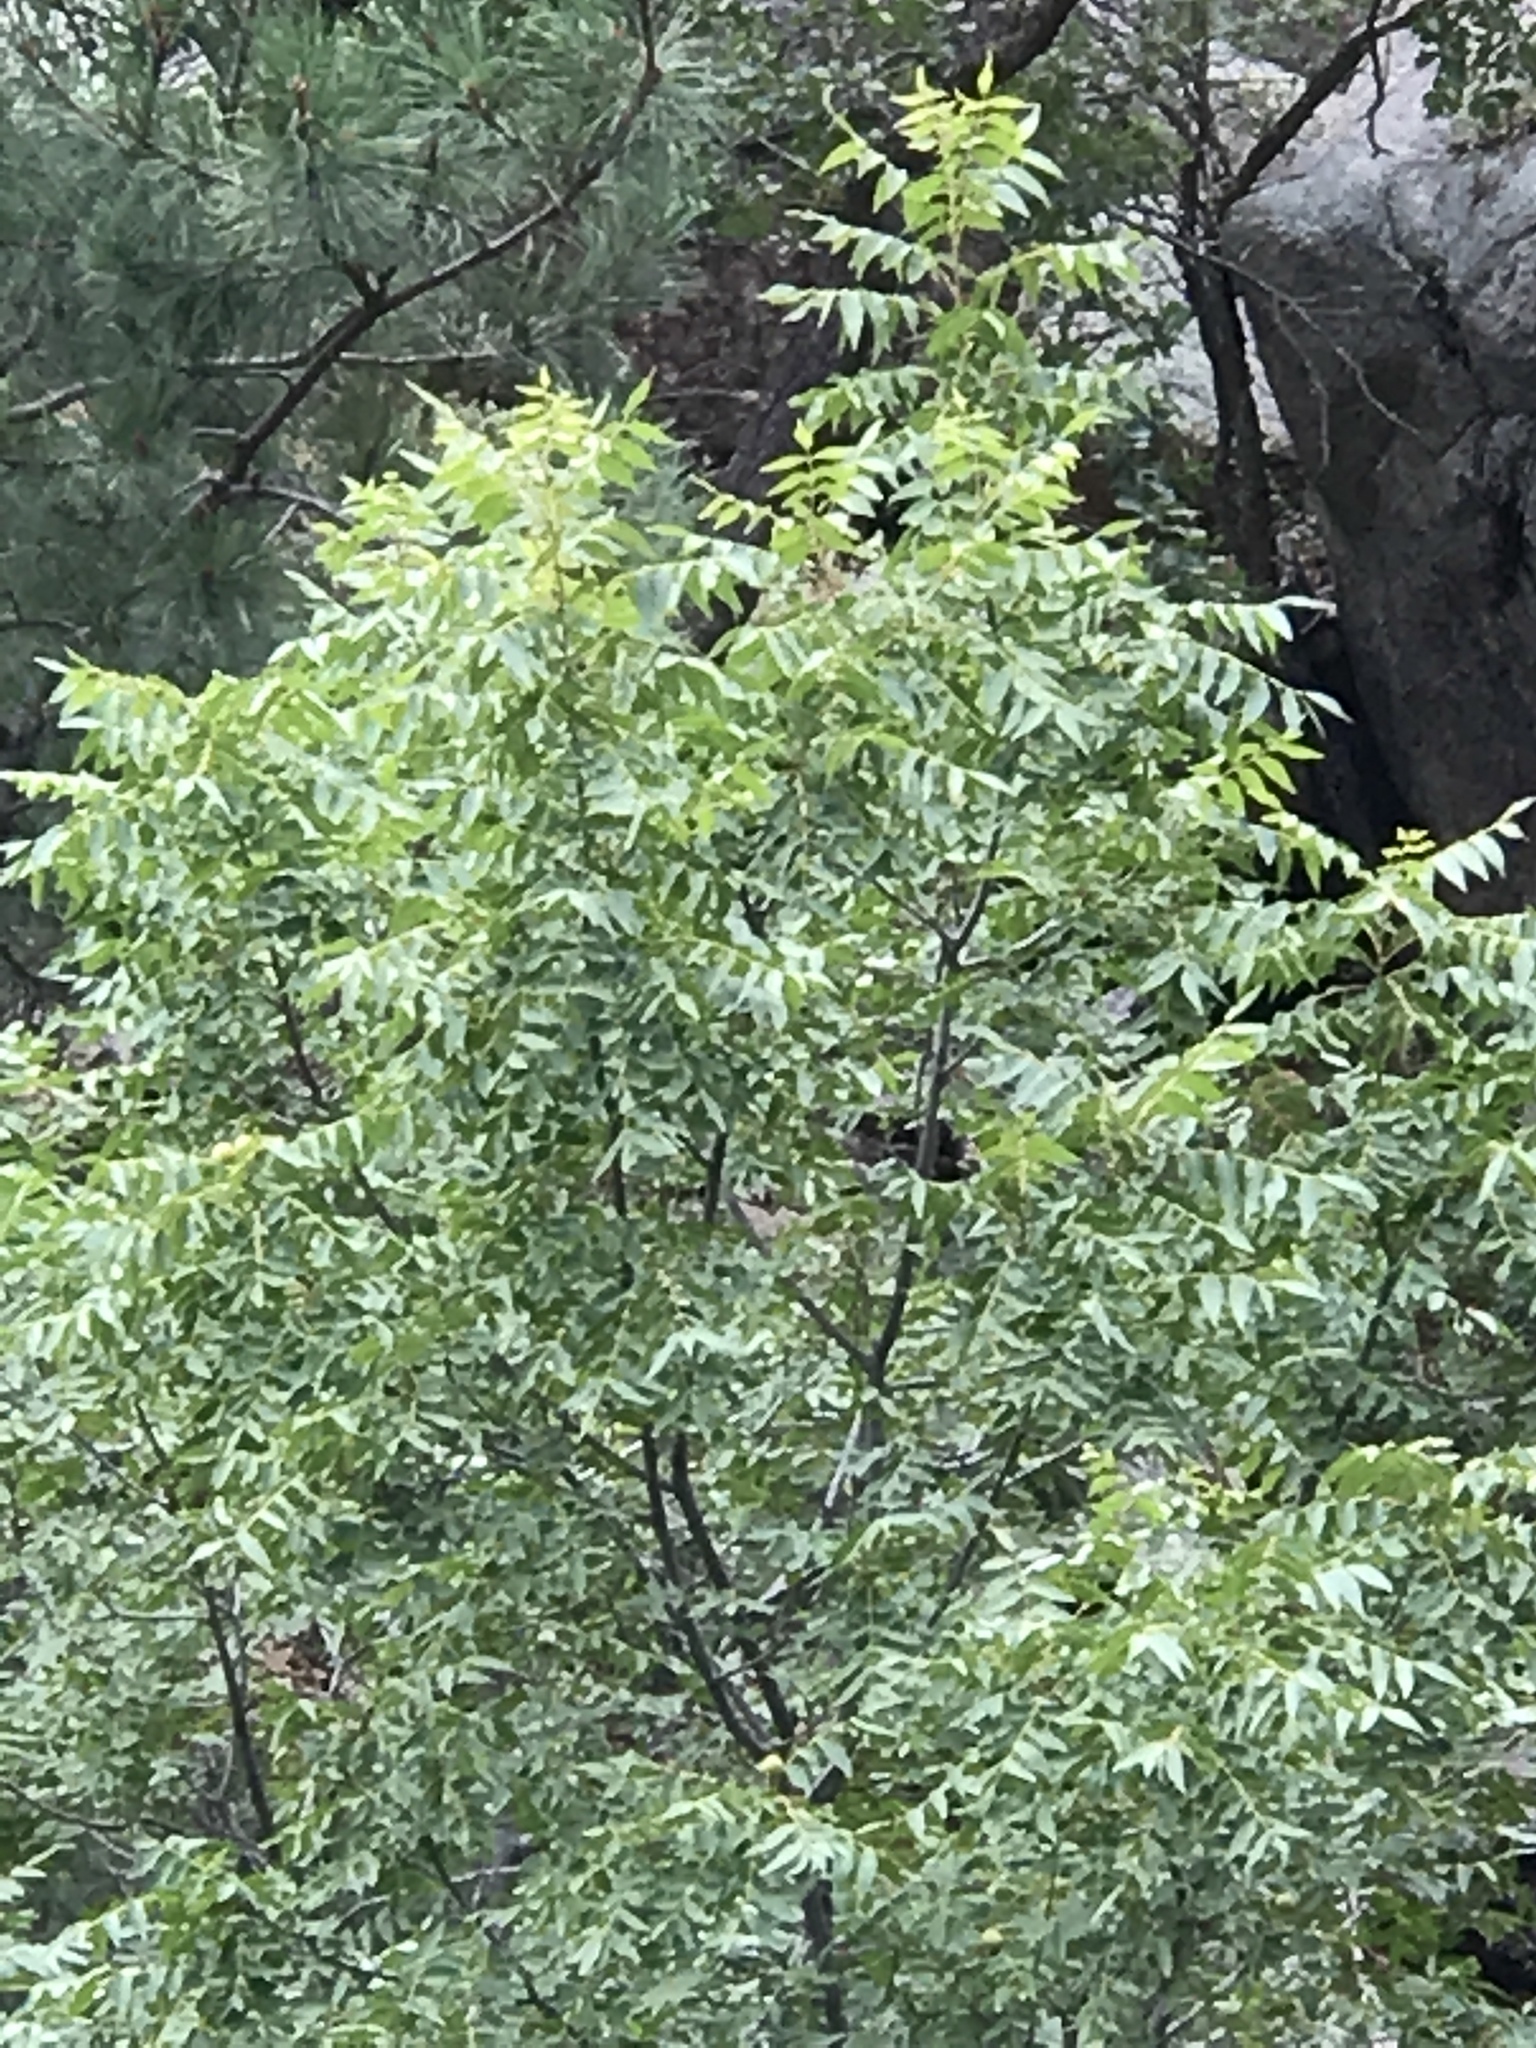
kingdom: Plantae
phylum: Tracheophyta
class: Magnoliopsida
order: Fagales
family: Juglandaceae
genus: Juglans
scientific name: Juglans major
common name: Arizona walnut
